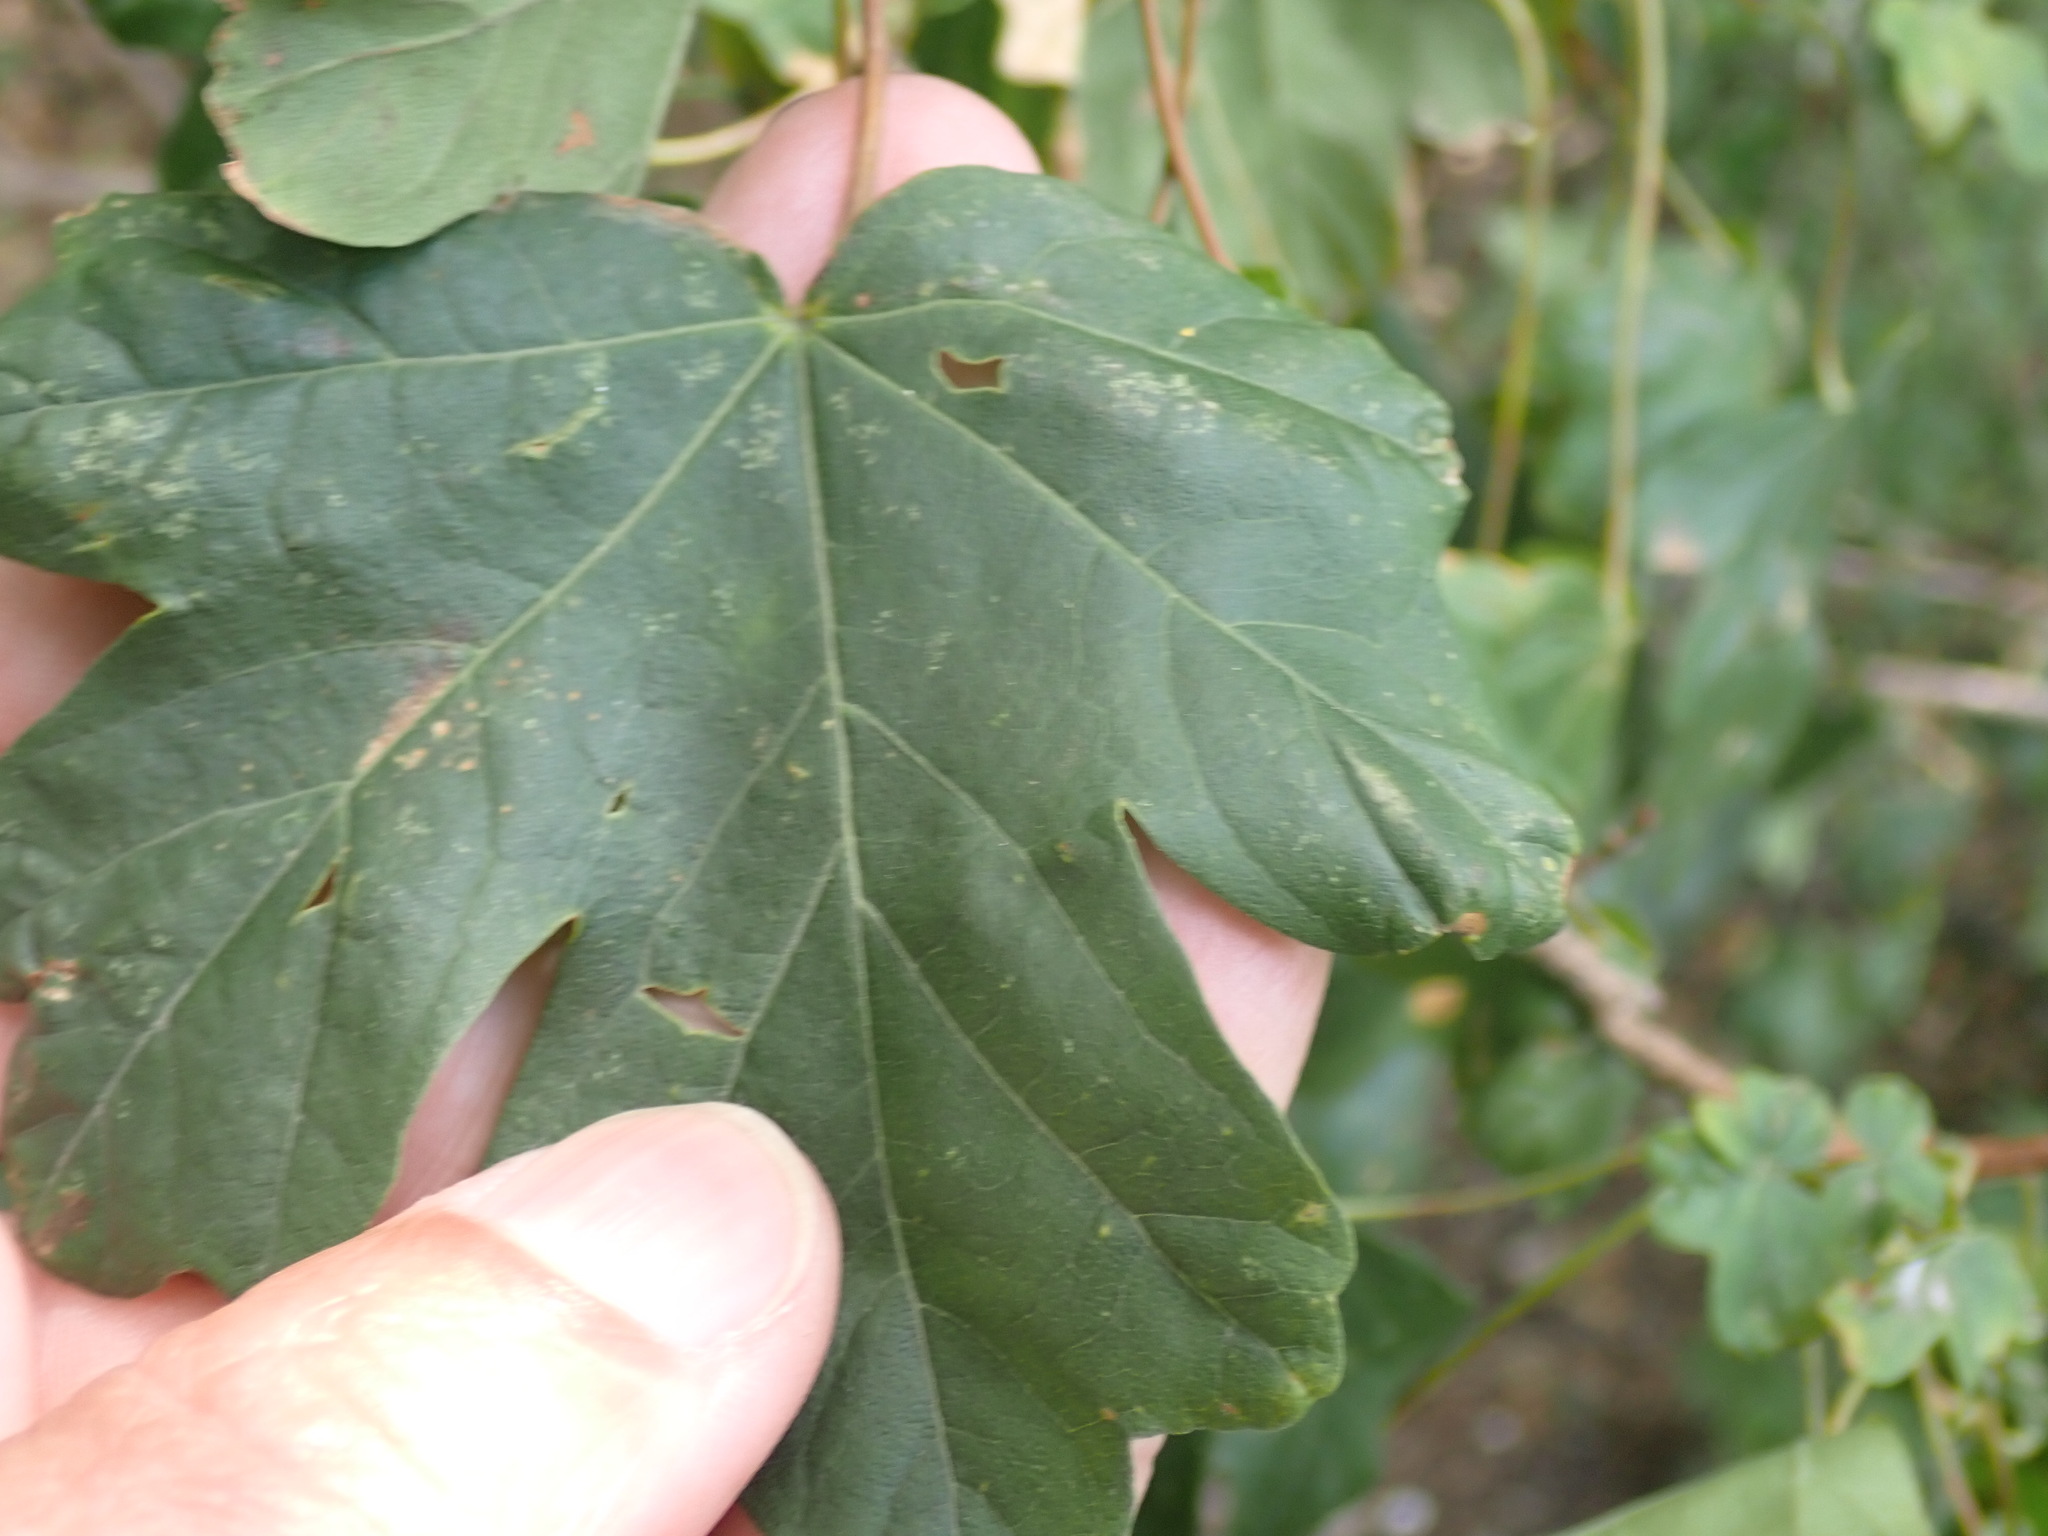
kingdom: Plantae
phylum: Tracheophyta
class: Magnoliopsida
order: Sapindales
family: Sapindaceae
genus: Acer
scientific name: Acer campestre
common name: Field maple
